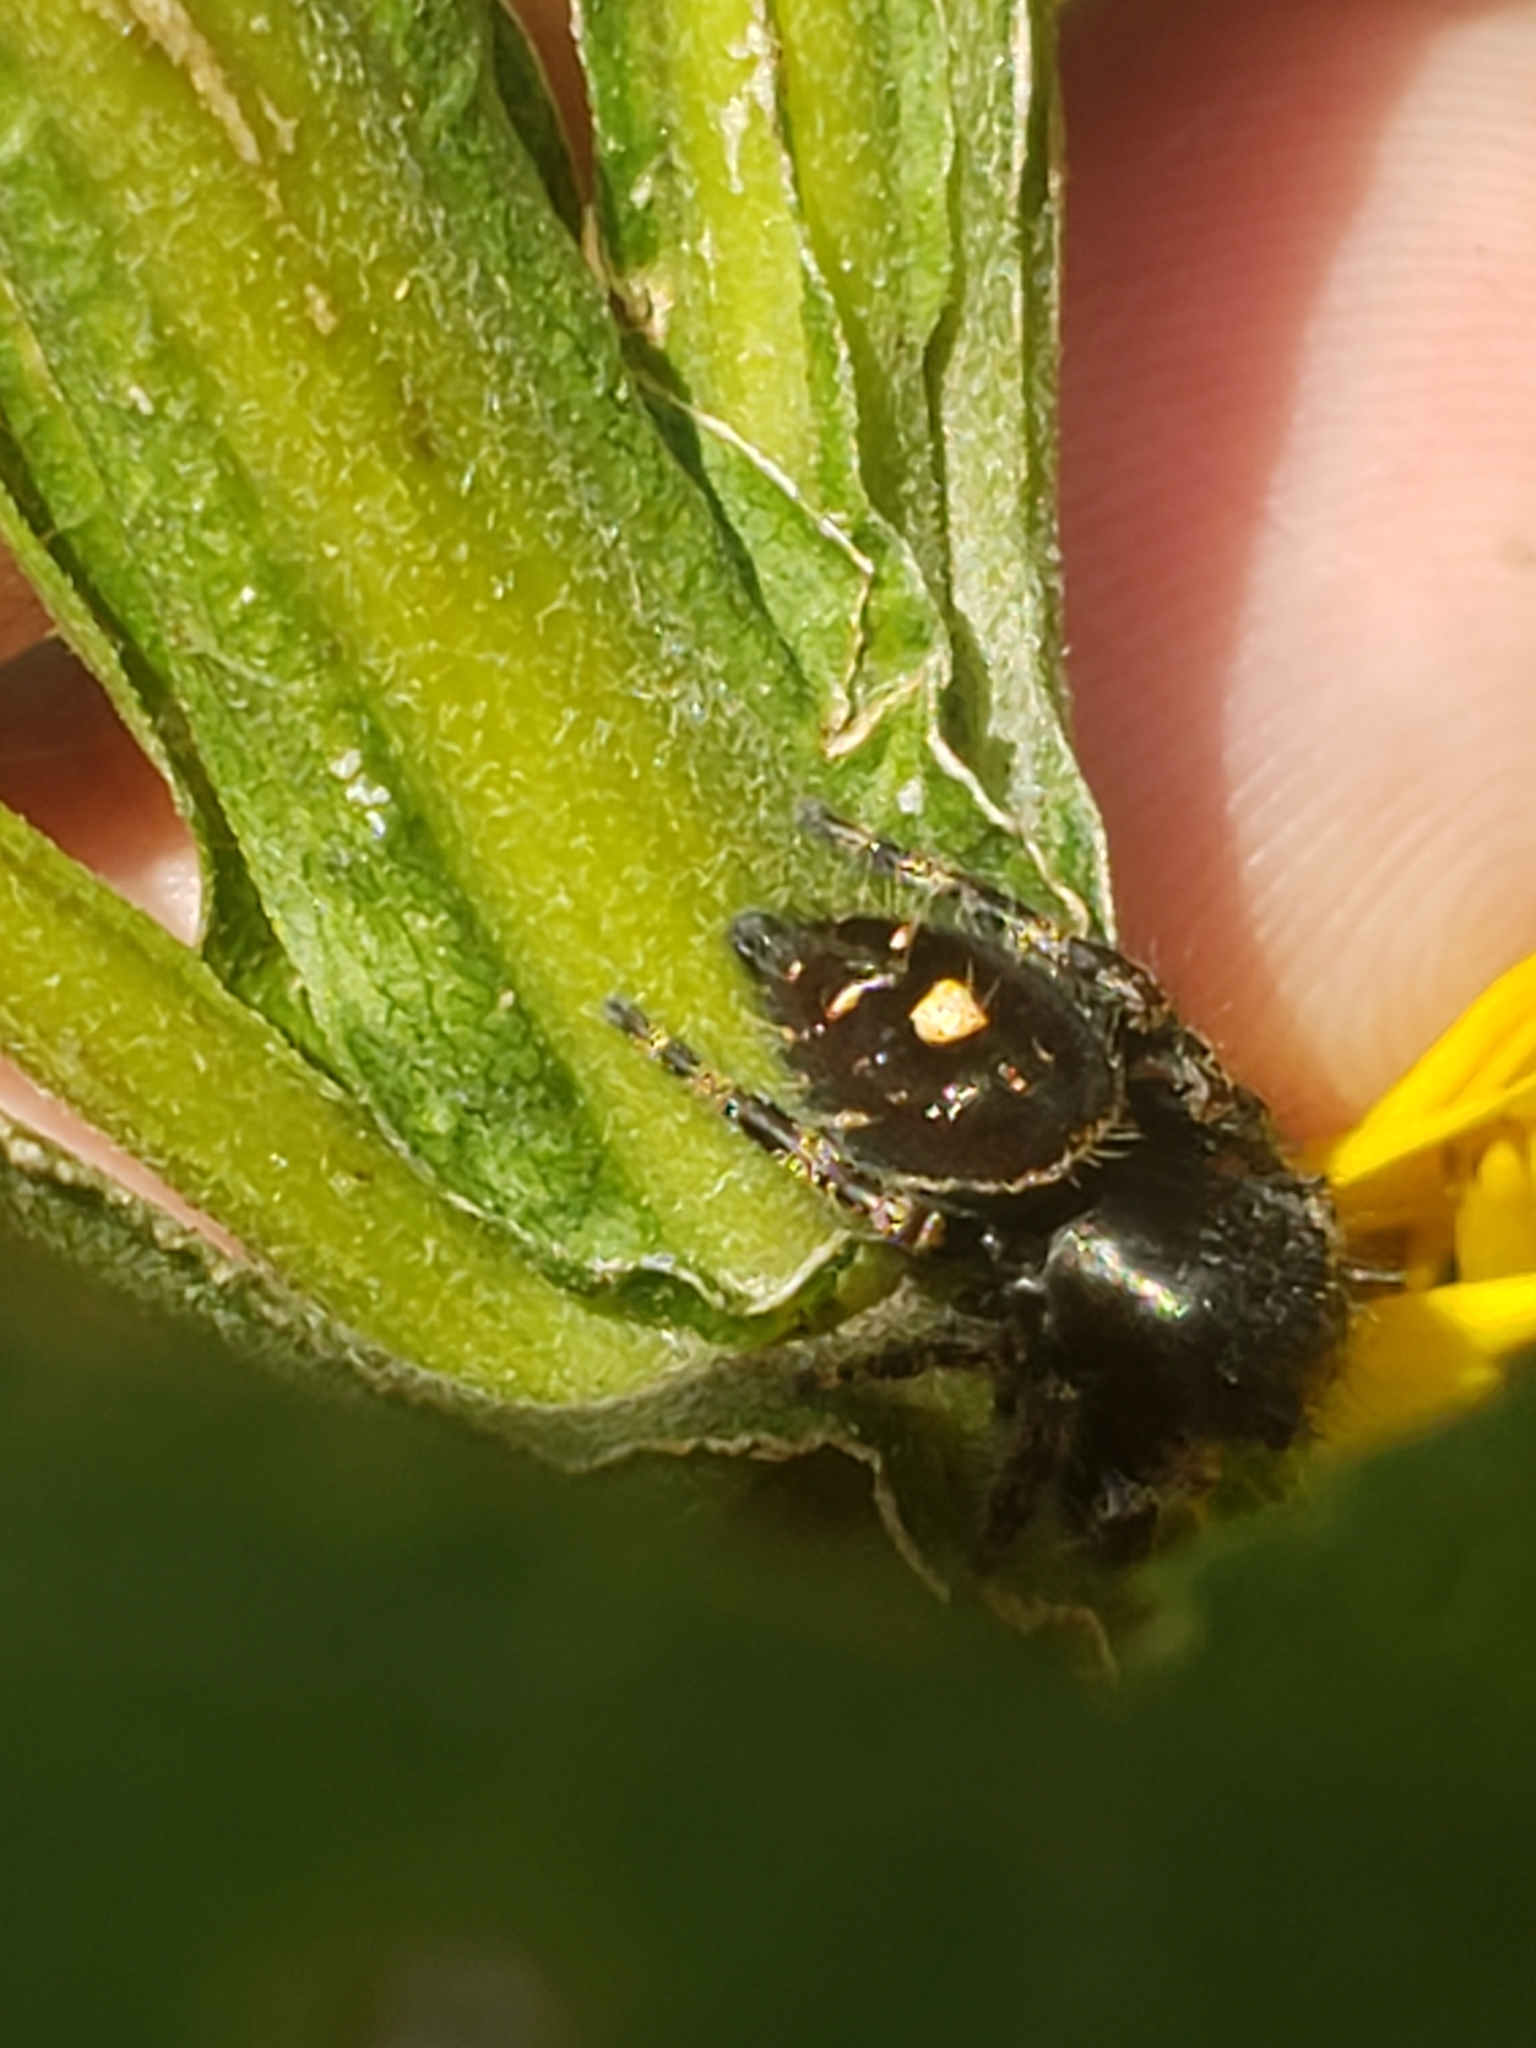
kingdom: Animalia
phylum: Arthropoda
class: Arachnida
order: Araneae
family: Salticidae
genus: Phidippus
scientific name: Phidippus audax
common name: Bold jumper
